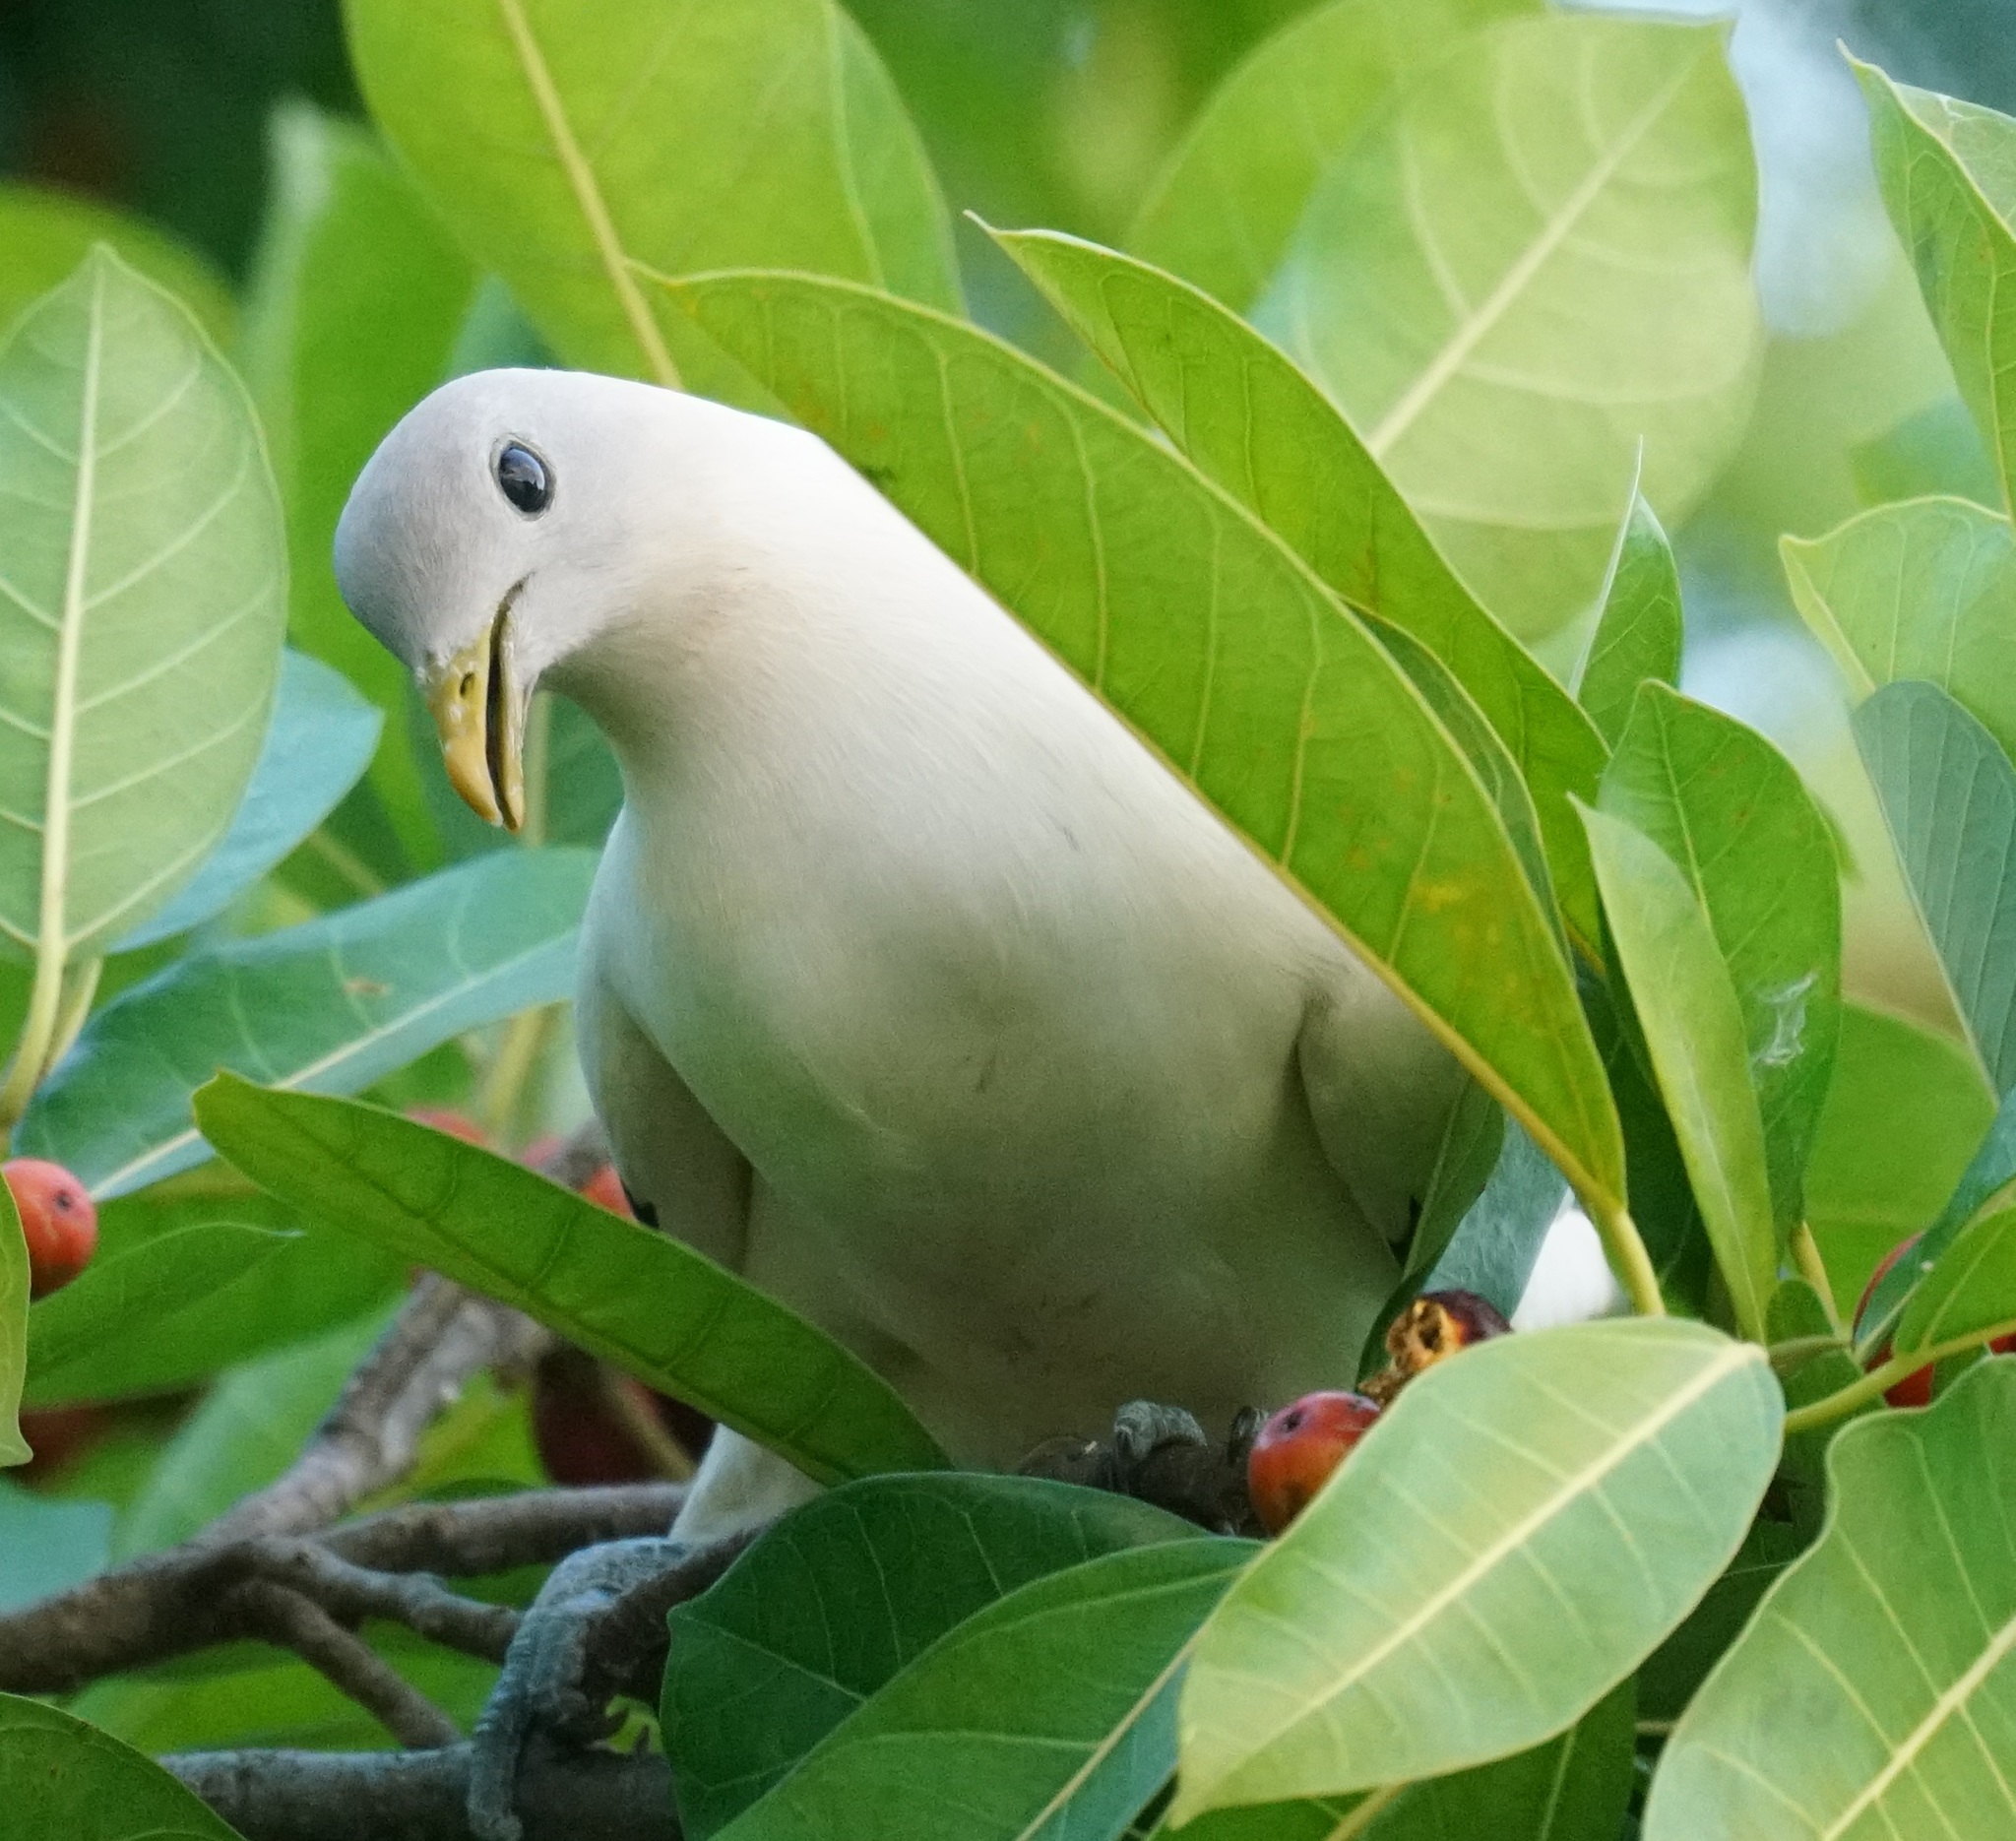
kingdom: Animalia
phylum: Chordata
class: Aves
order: Columbiformes
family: Columbidae
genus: Ducula
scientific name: Ducula spilorrhoa
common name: Torresian imperial pigeon
